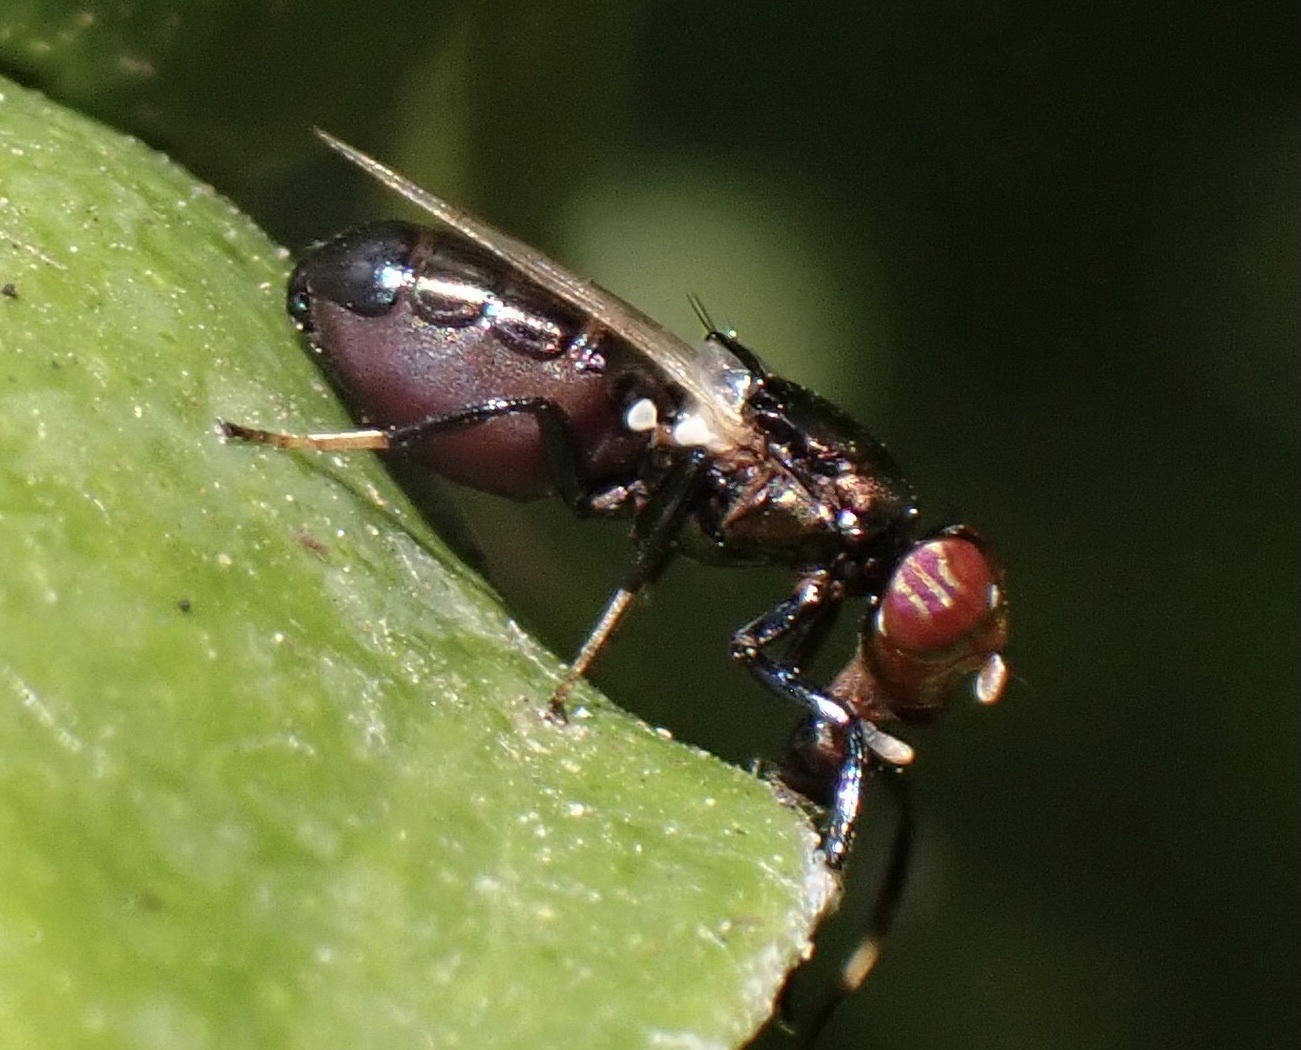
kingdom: Animalia
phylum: Arthropoda
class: Insecta
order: Diptera
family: Ulidiidae
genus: Physiphora
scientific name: Physiphora alceae
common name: Picture-winged fly
